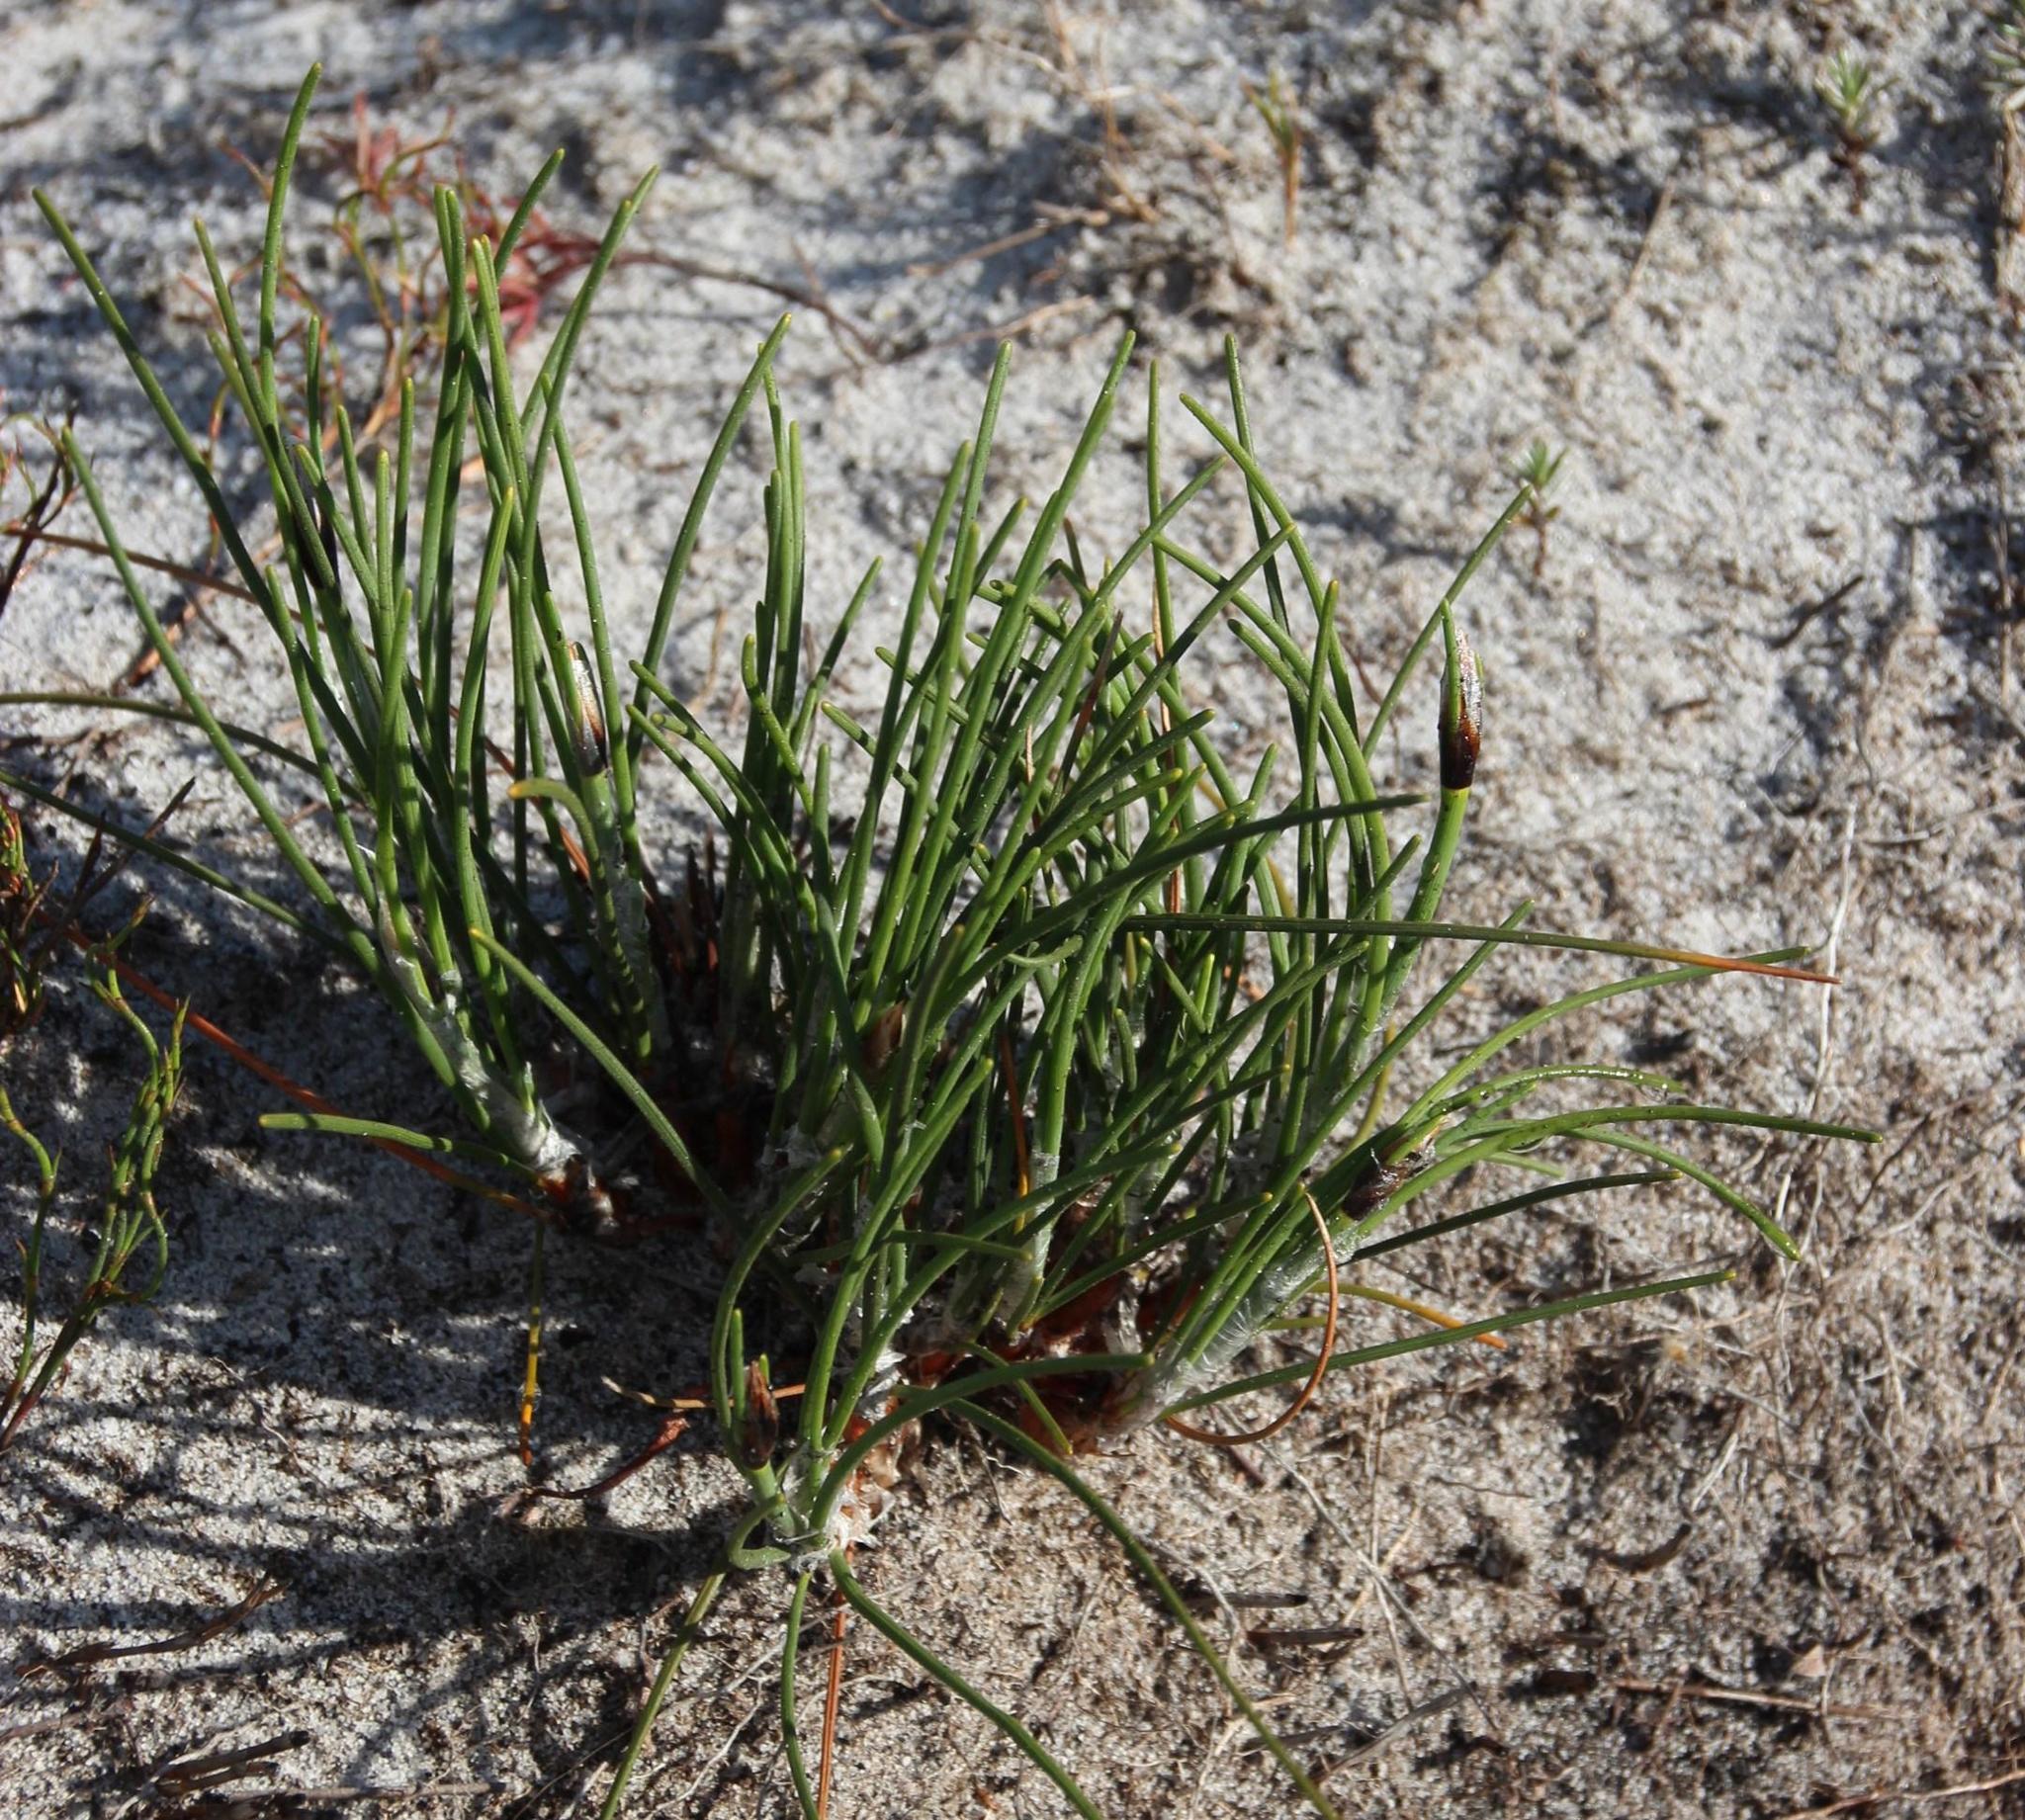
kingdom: Plantae
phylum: Tracheophyta
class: Liliopsida
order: Poales
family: Cyperaceae
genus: Ficinia
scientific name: Ficinia deusta
